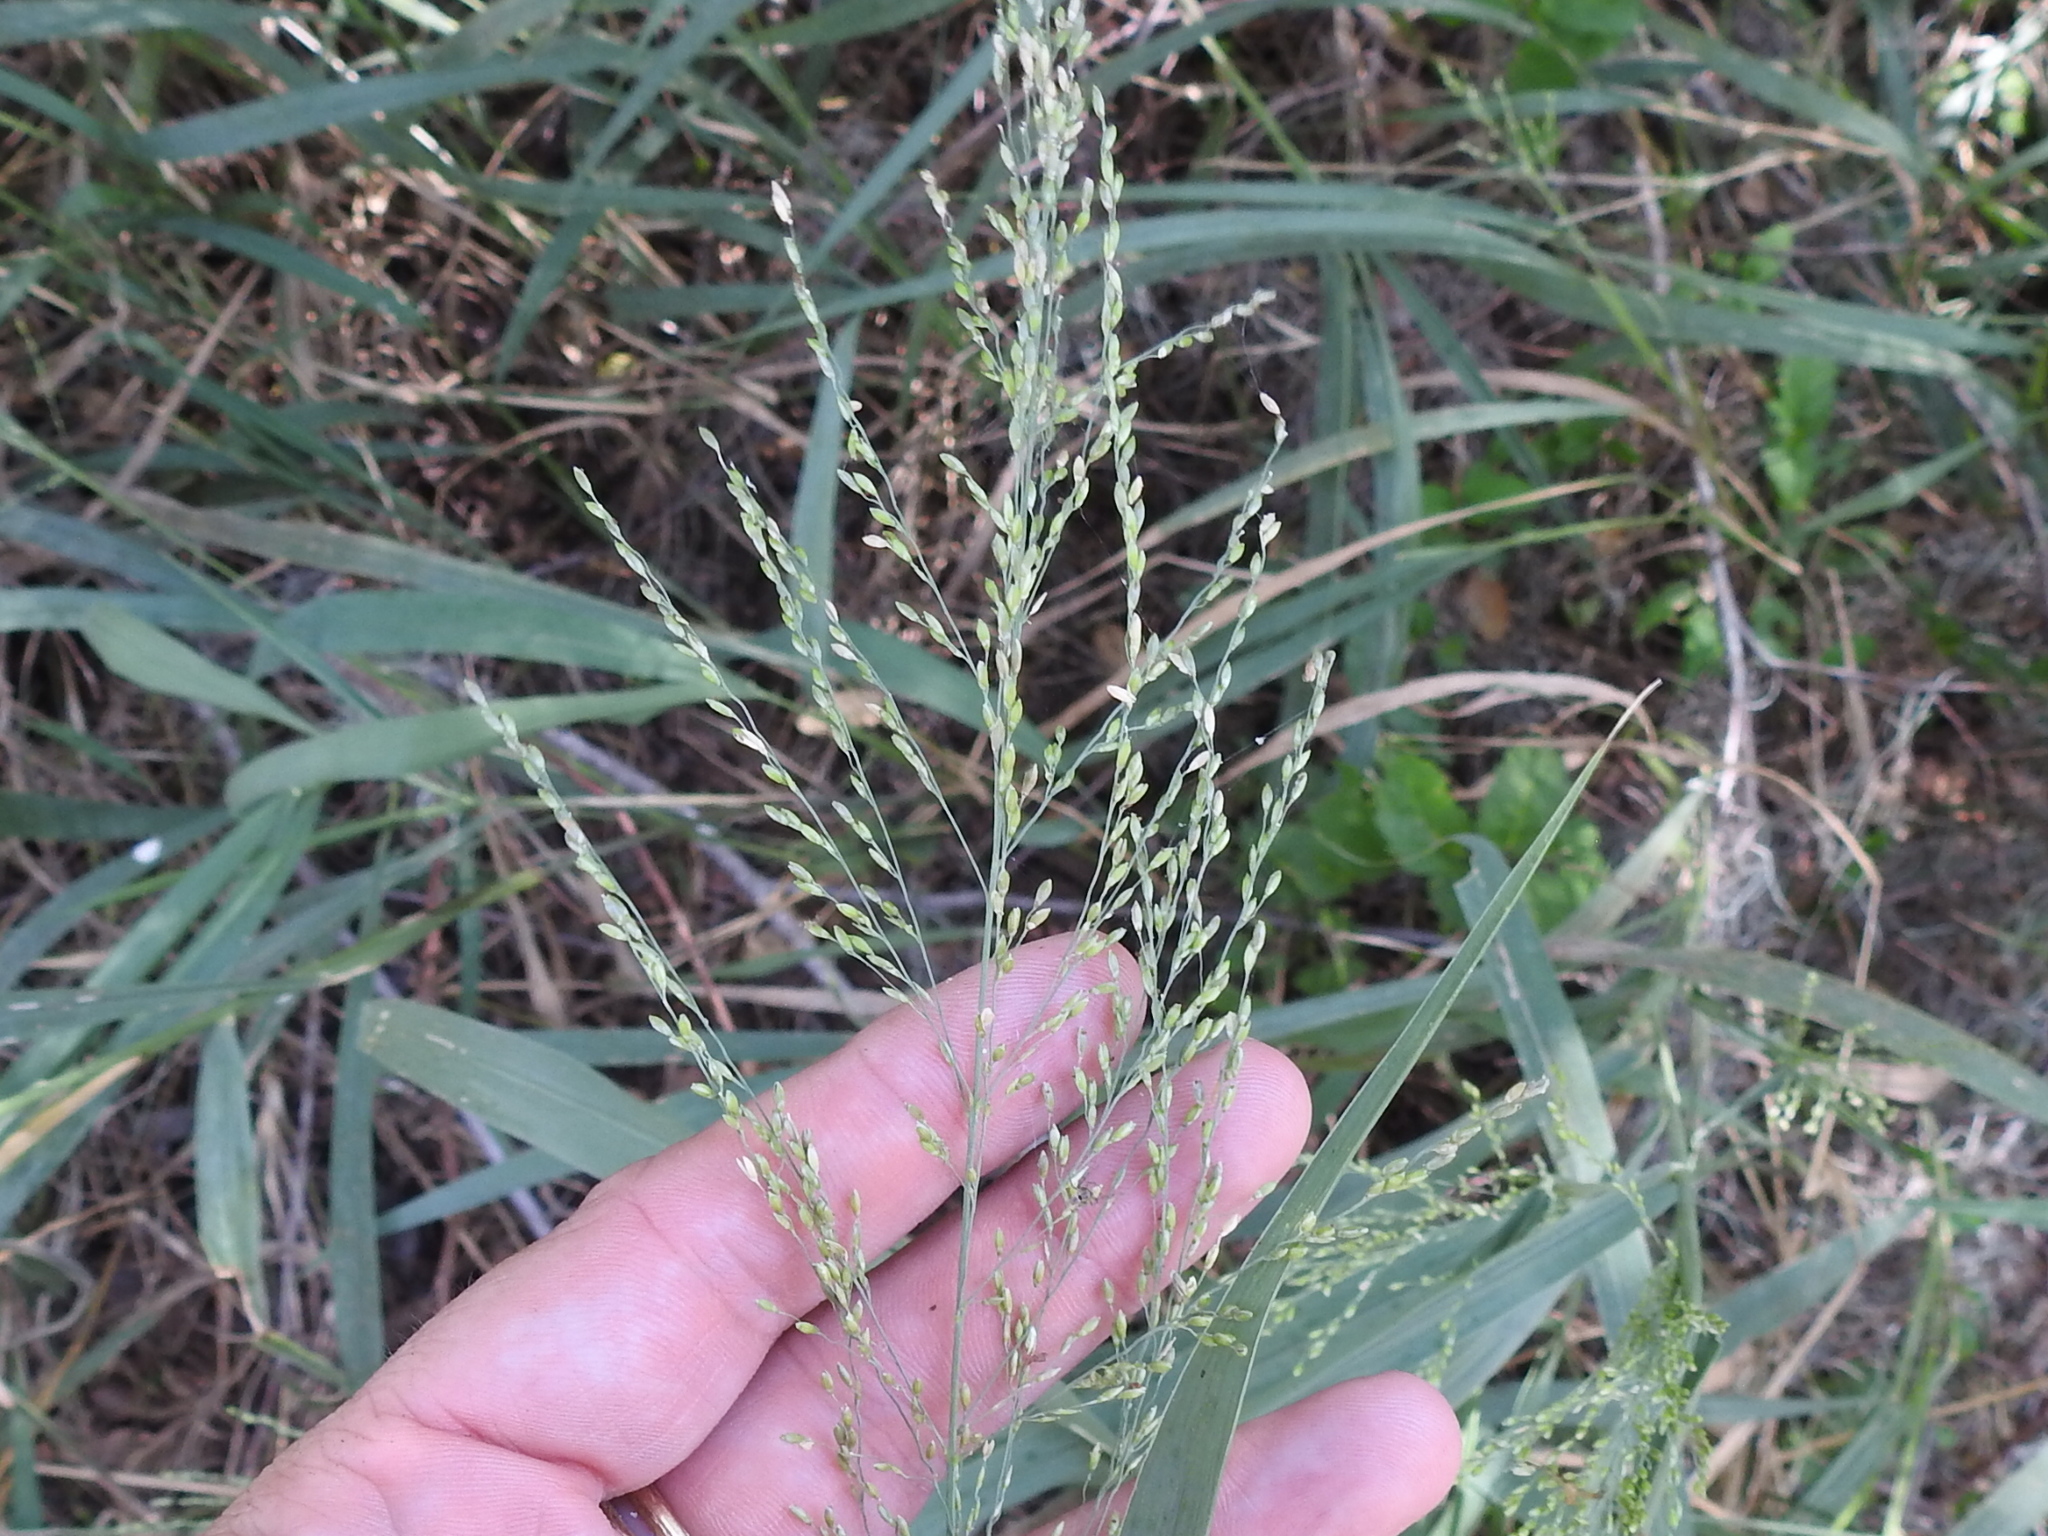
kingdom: Plantae
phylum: Tracheophyta
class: Liliopsida
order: Poales
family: Poaceae
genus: Megathyrsus
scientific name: Megathyrsus maximus
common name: Guineagrass
